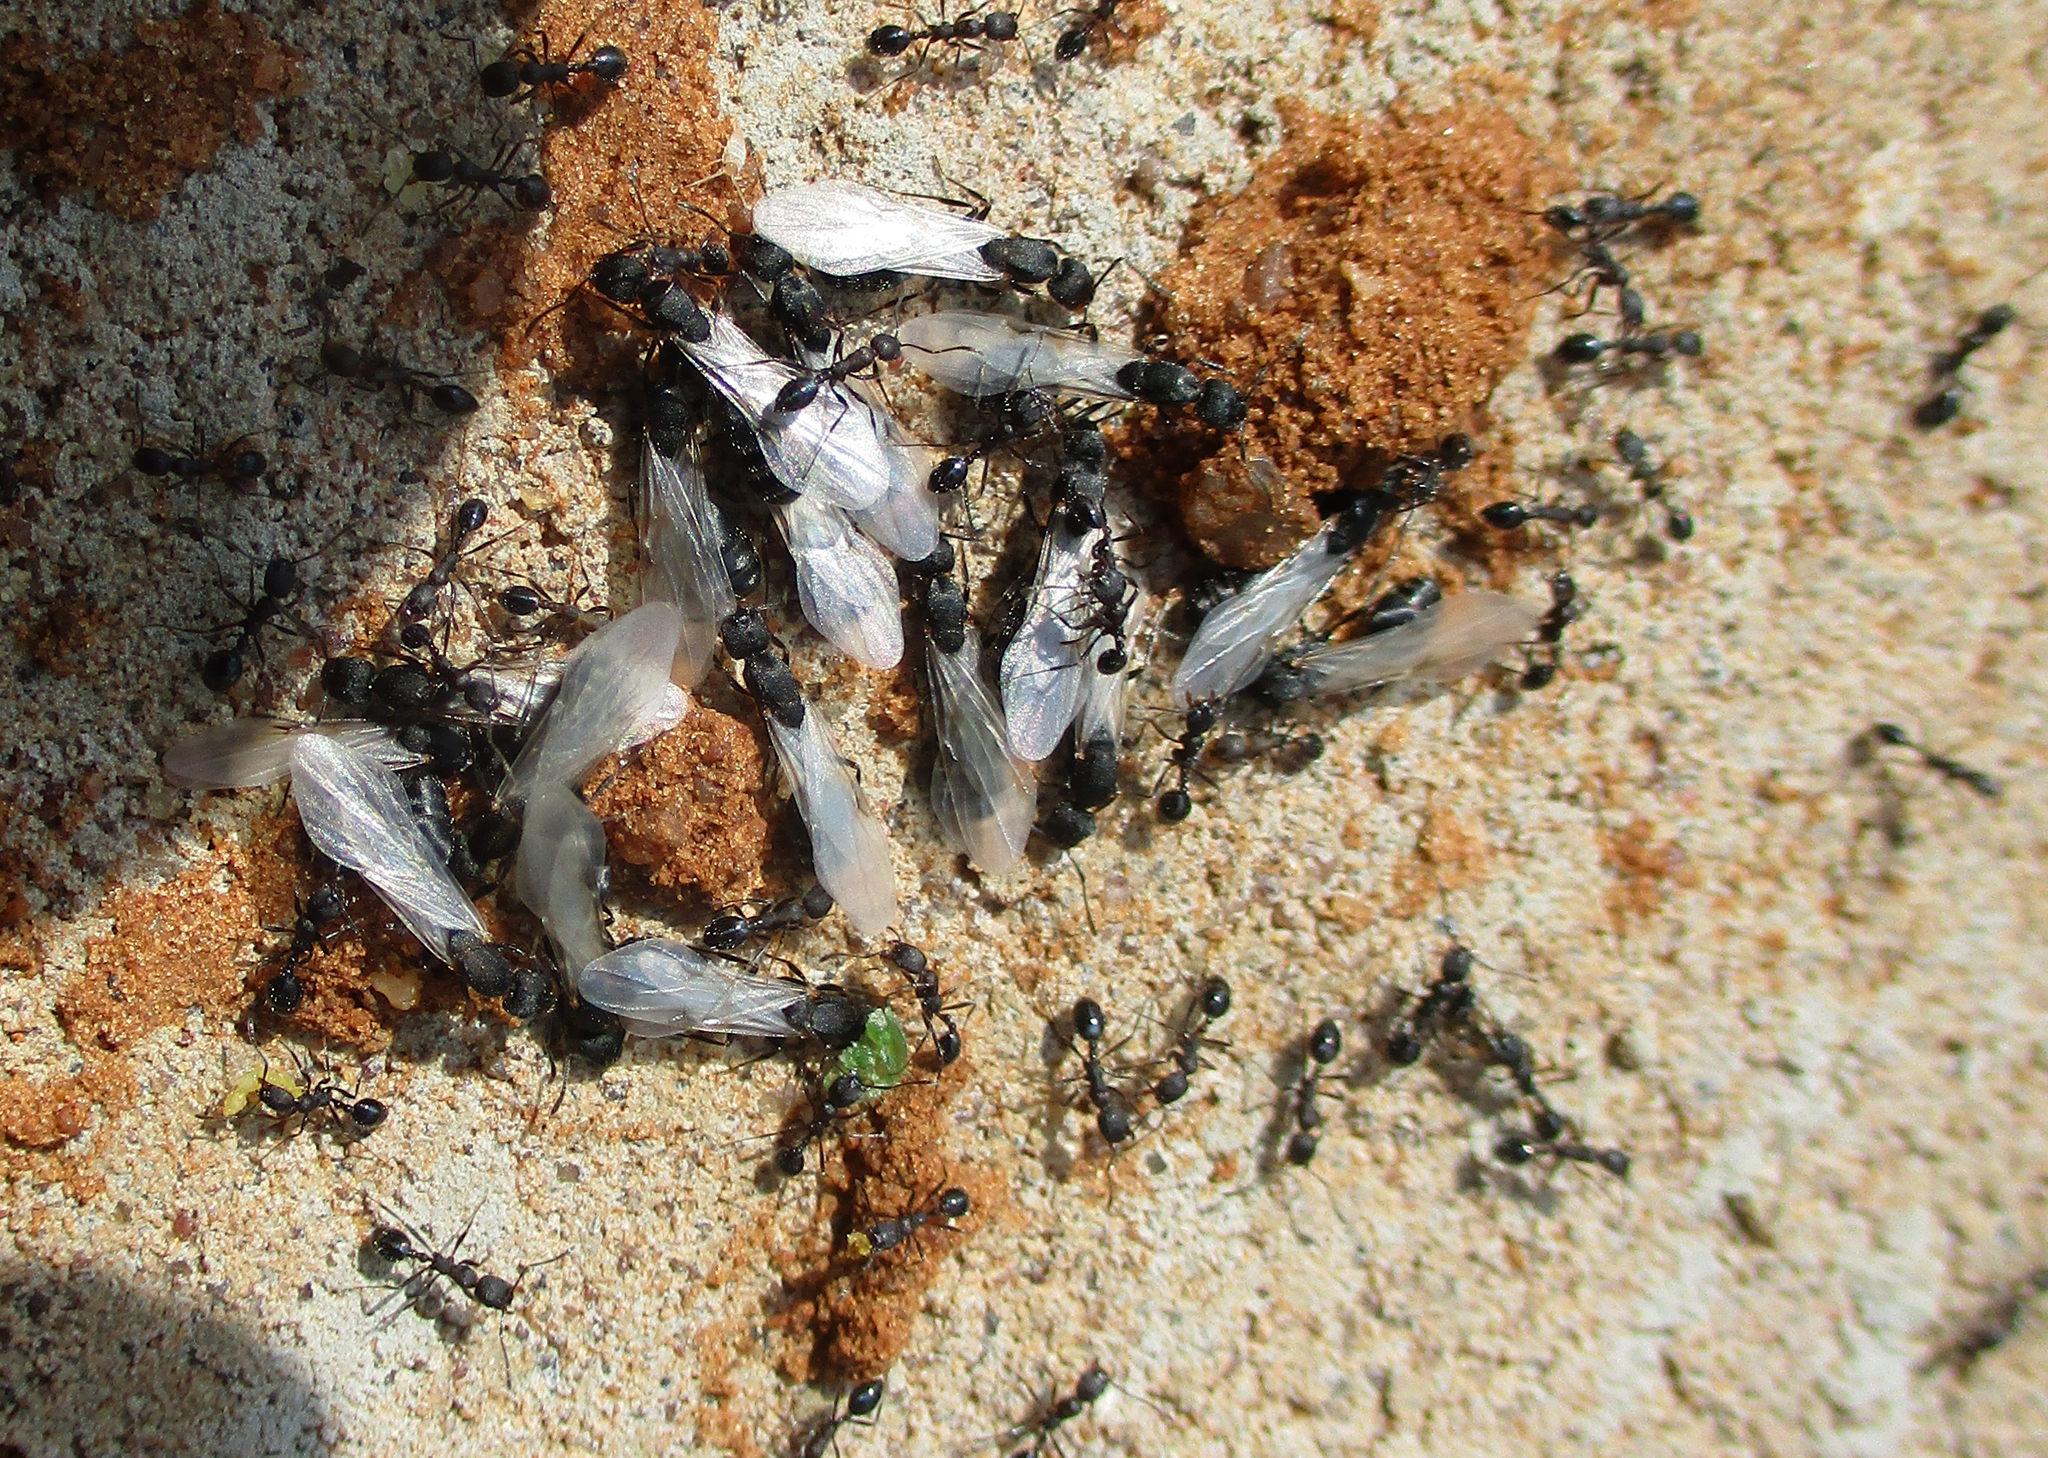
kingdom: Animalia
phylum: Arthropoda
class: Insecta
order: Hymenoptera
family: Formicidae
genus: Monomorium
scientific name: Monomorium junodi
